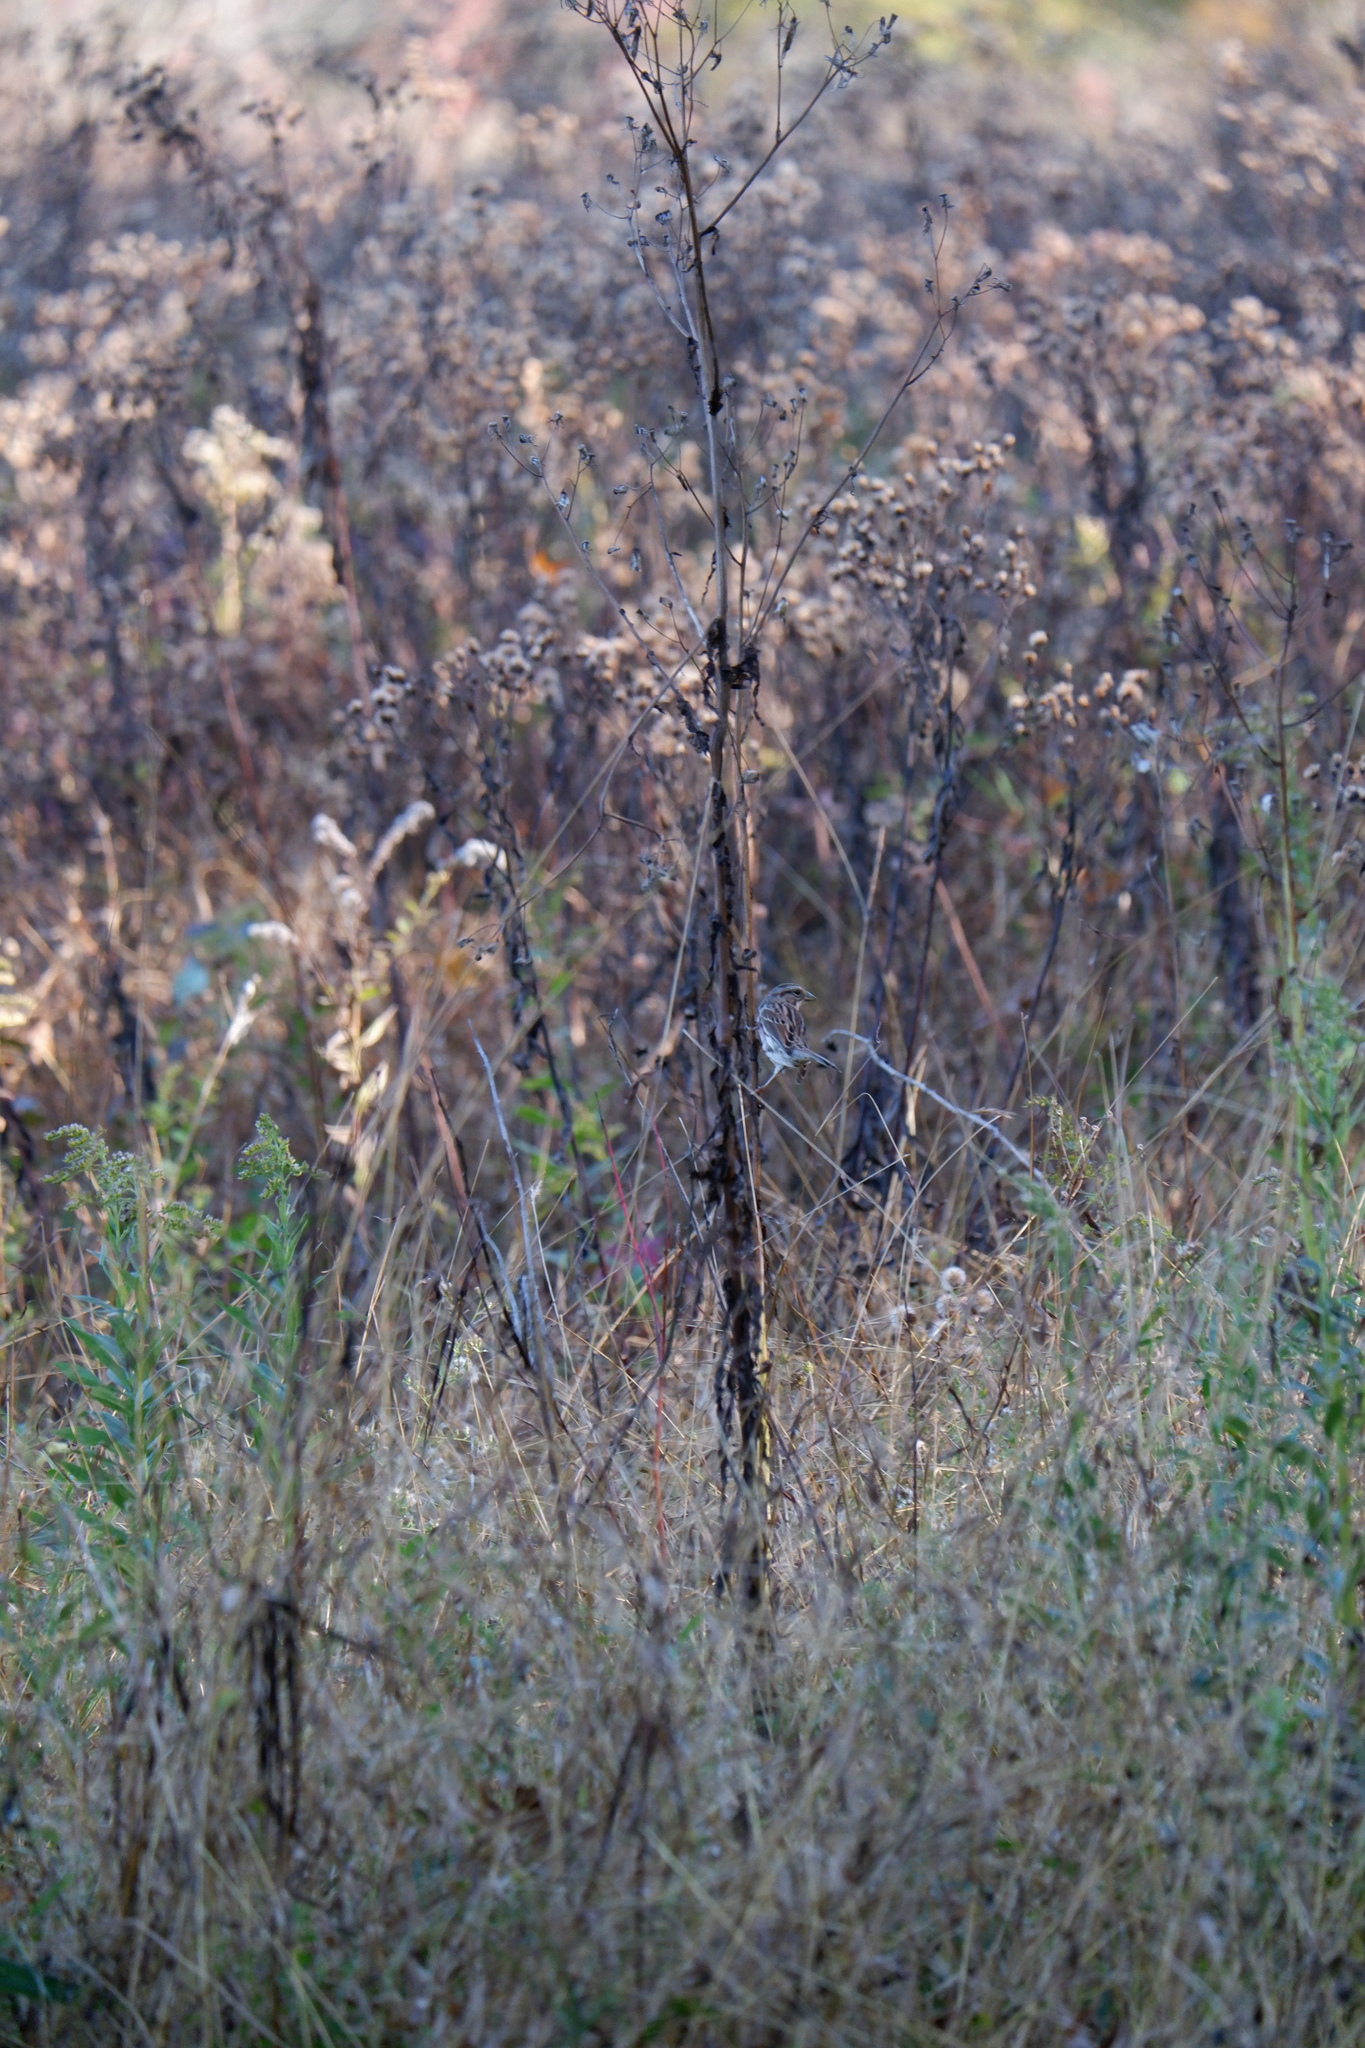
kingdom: Animalia
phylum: Chordata
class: Aves
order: Passeriformes
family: Passerellidae
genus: Melospiza
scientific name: Melospiza melodia
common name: Song sparrow
